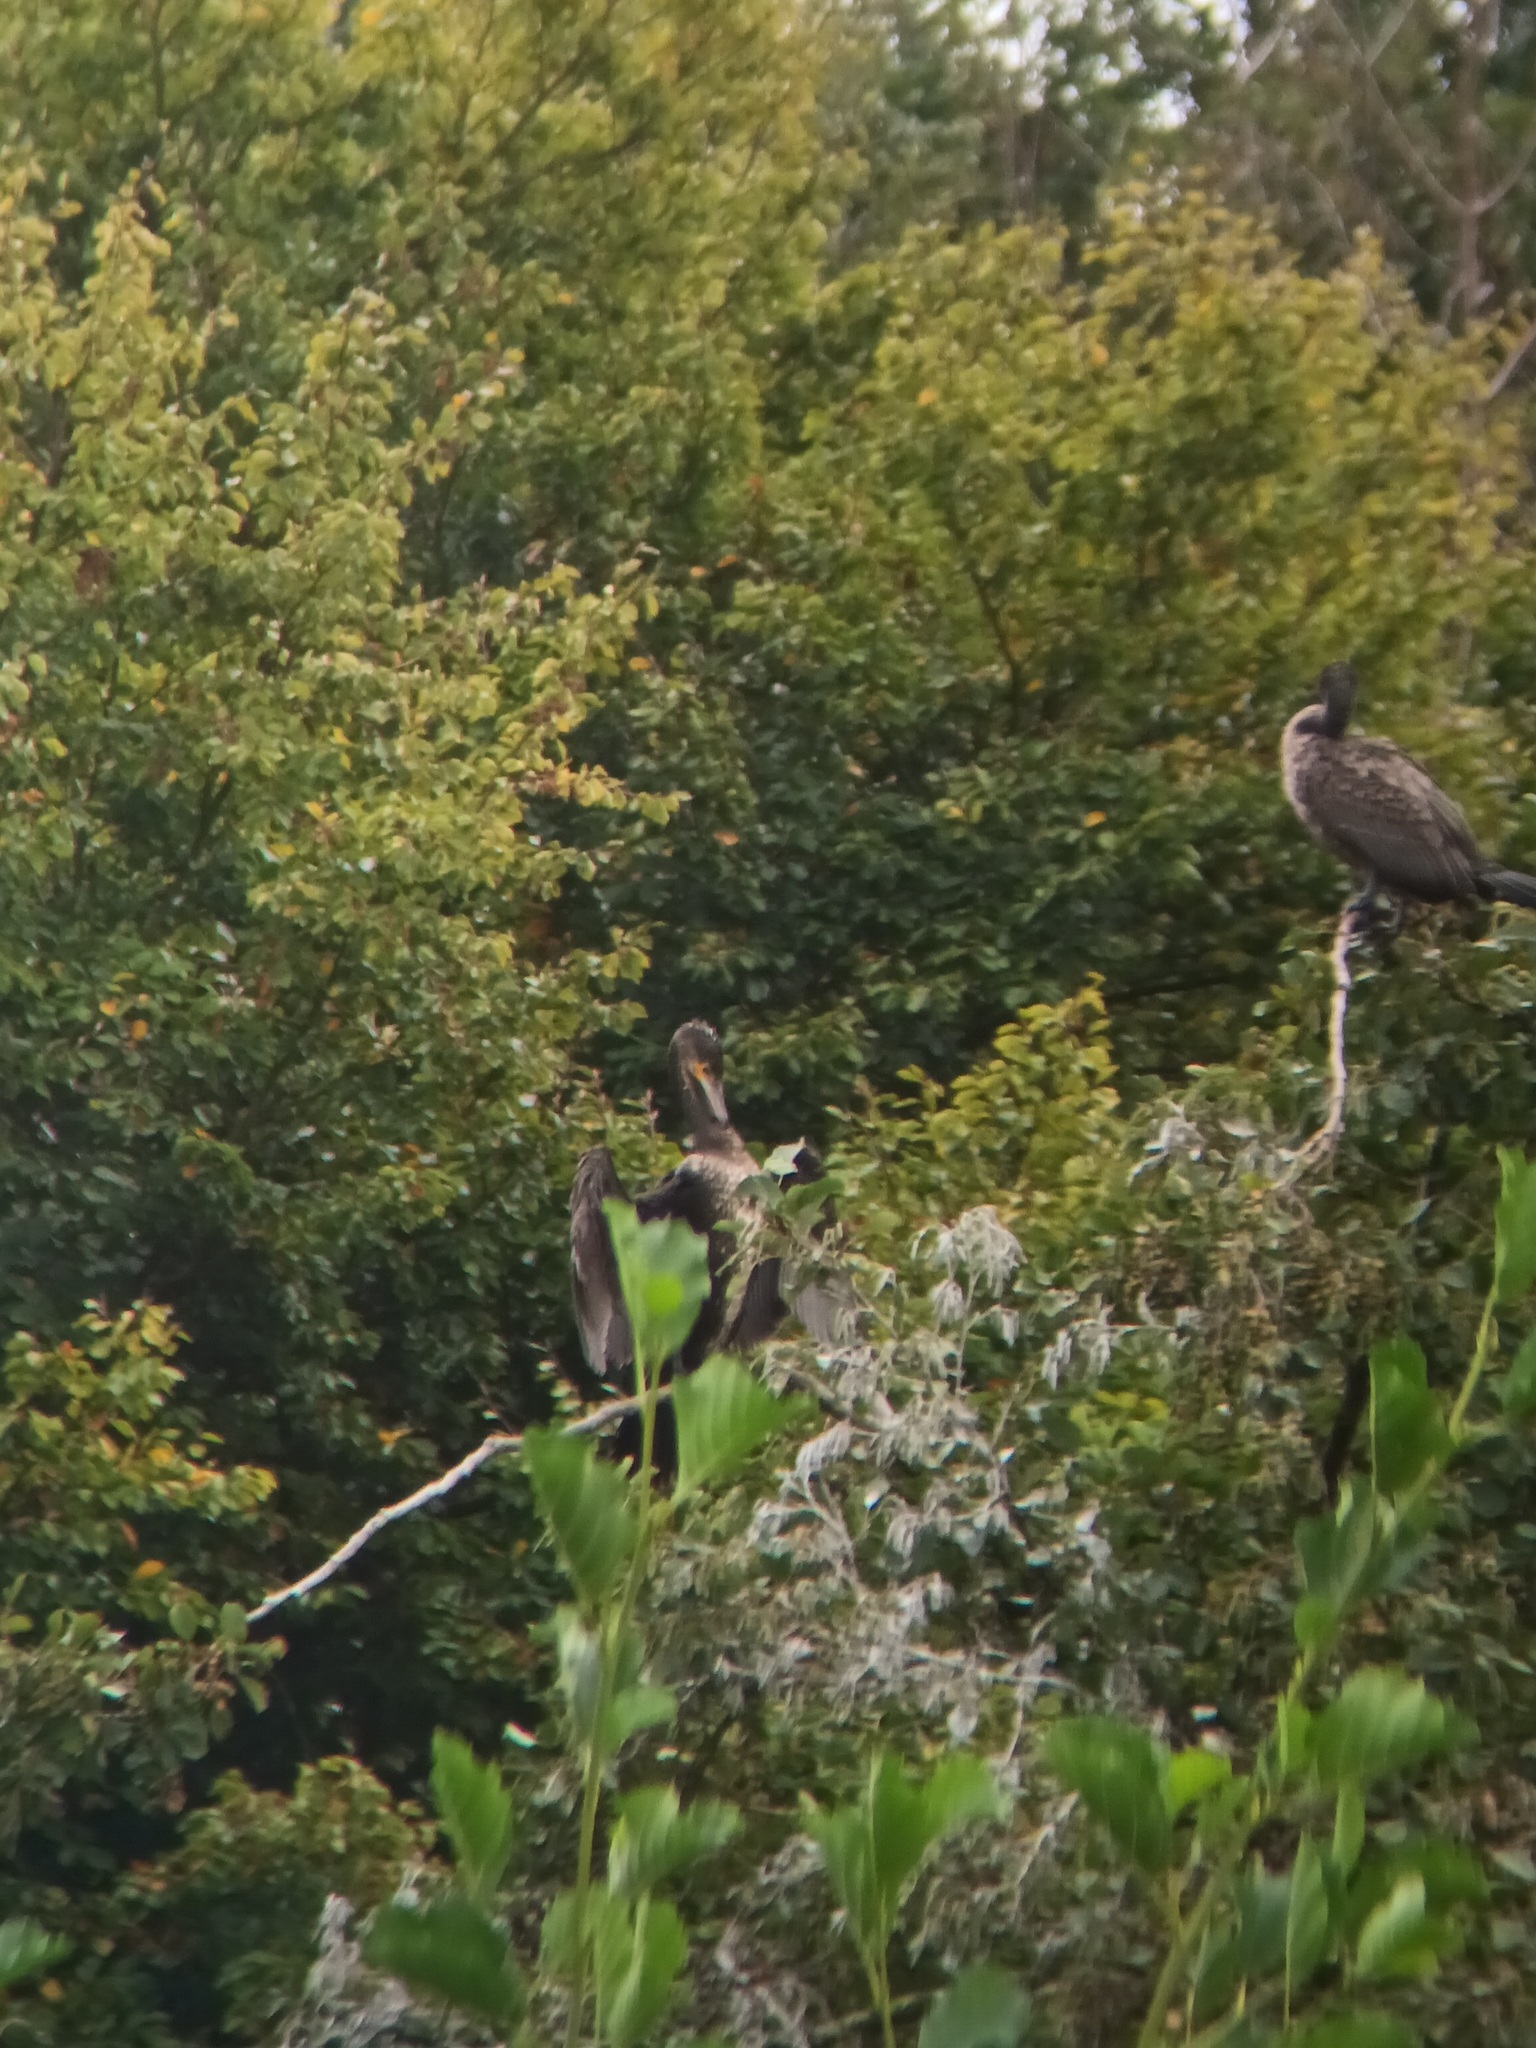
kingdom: Animalia
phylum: Chordata
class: Aves
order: Suliformes
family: Phalacrocoracidae
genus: Phalacrocorax
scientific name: Phalacrocorax carbo
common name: Great cormorant
